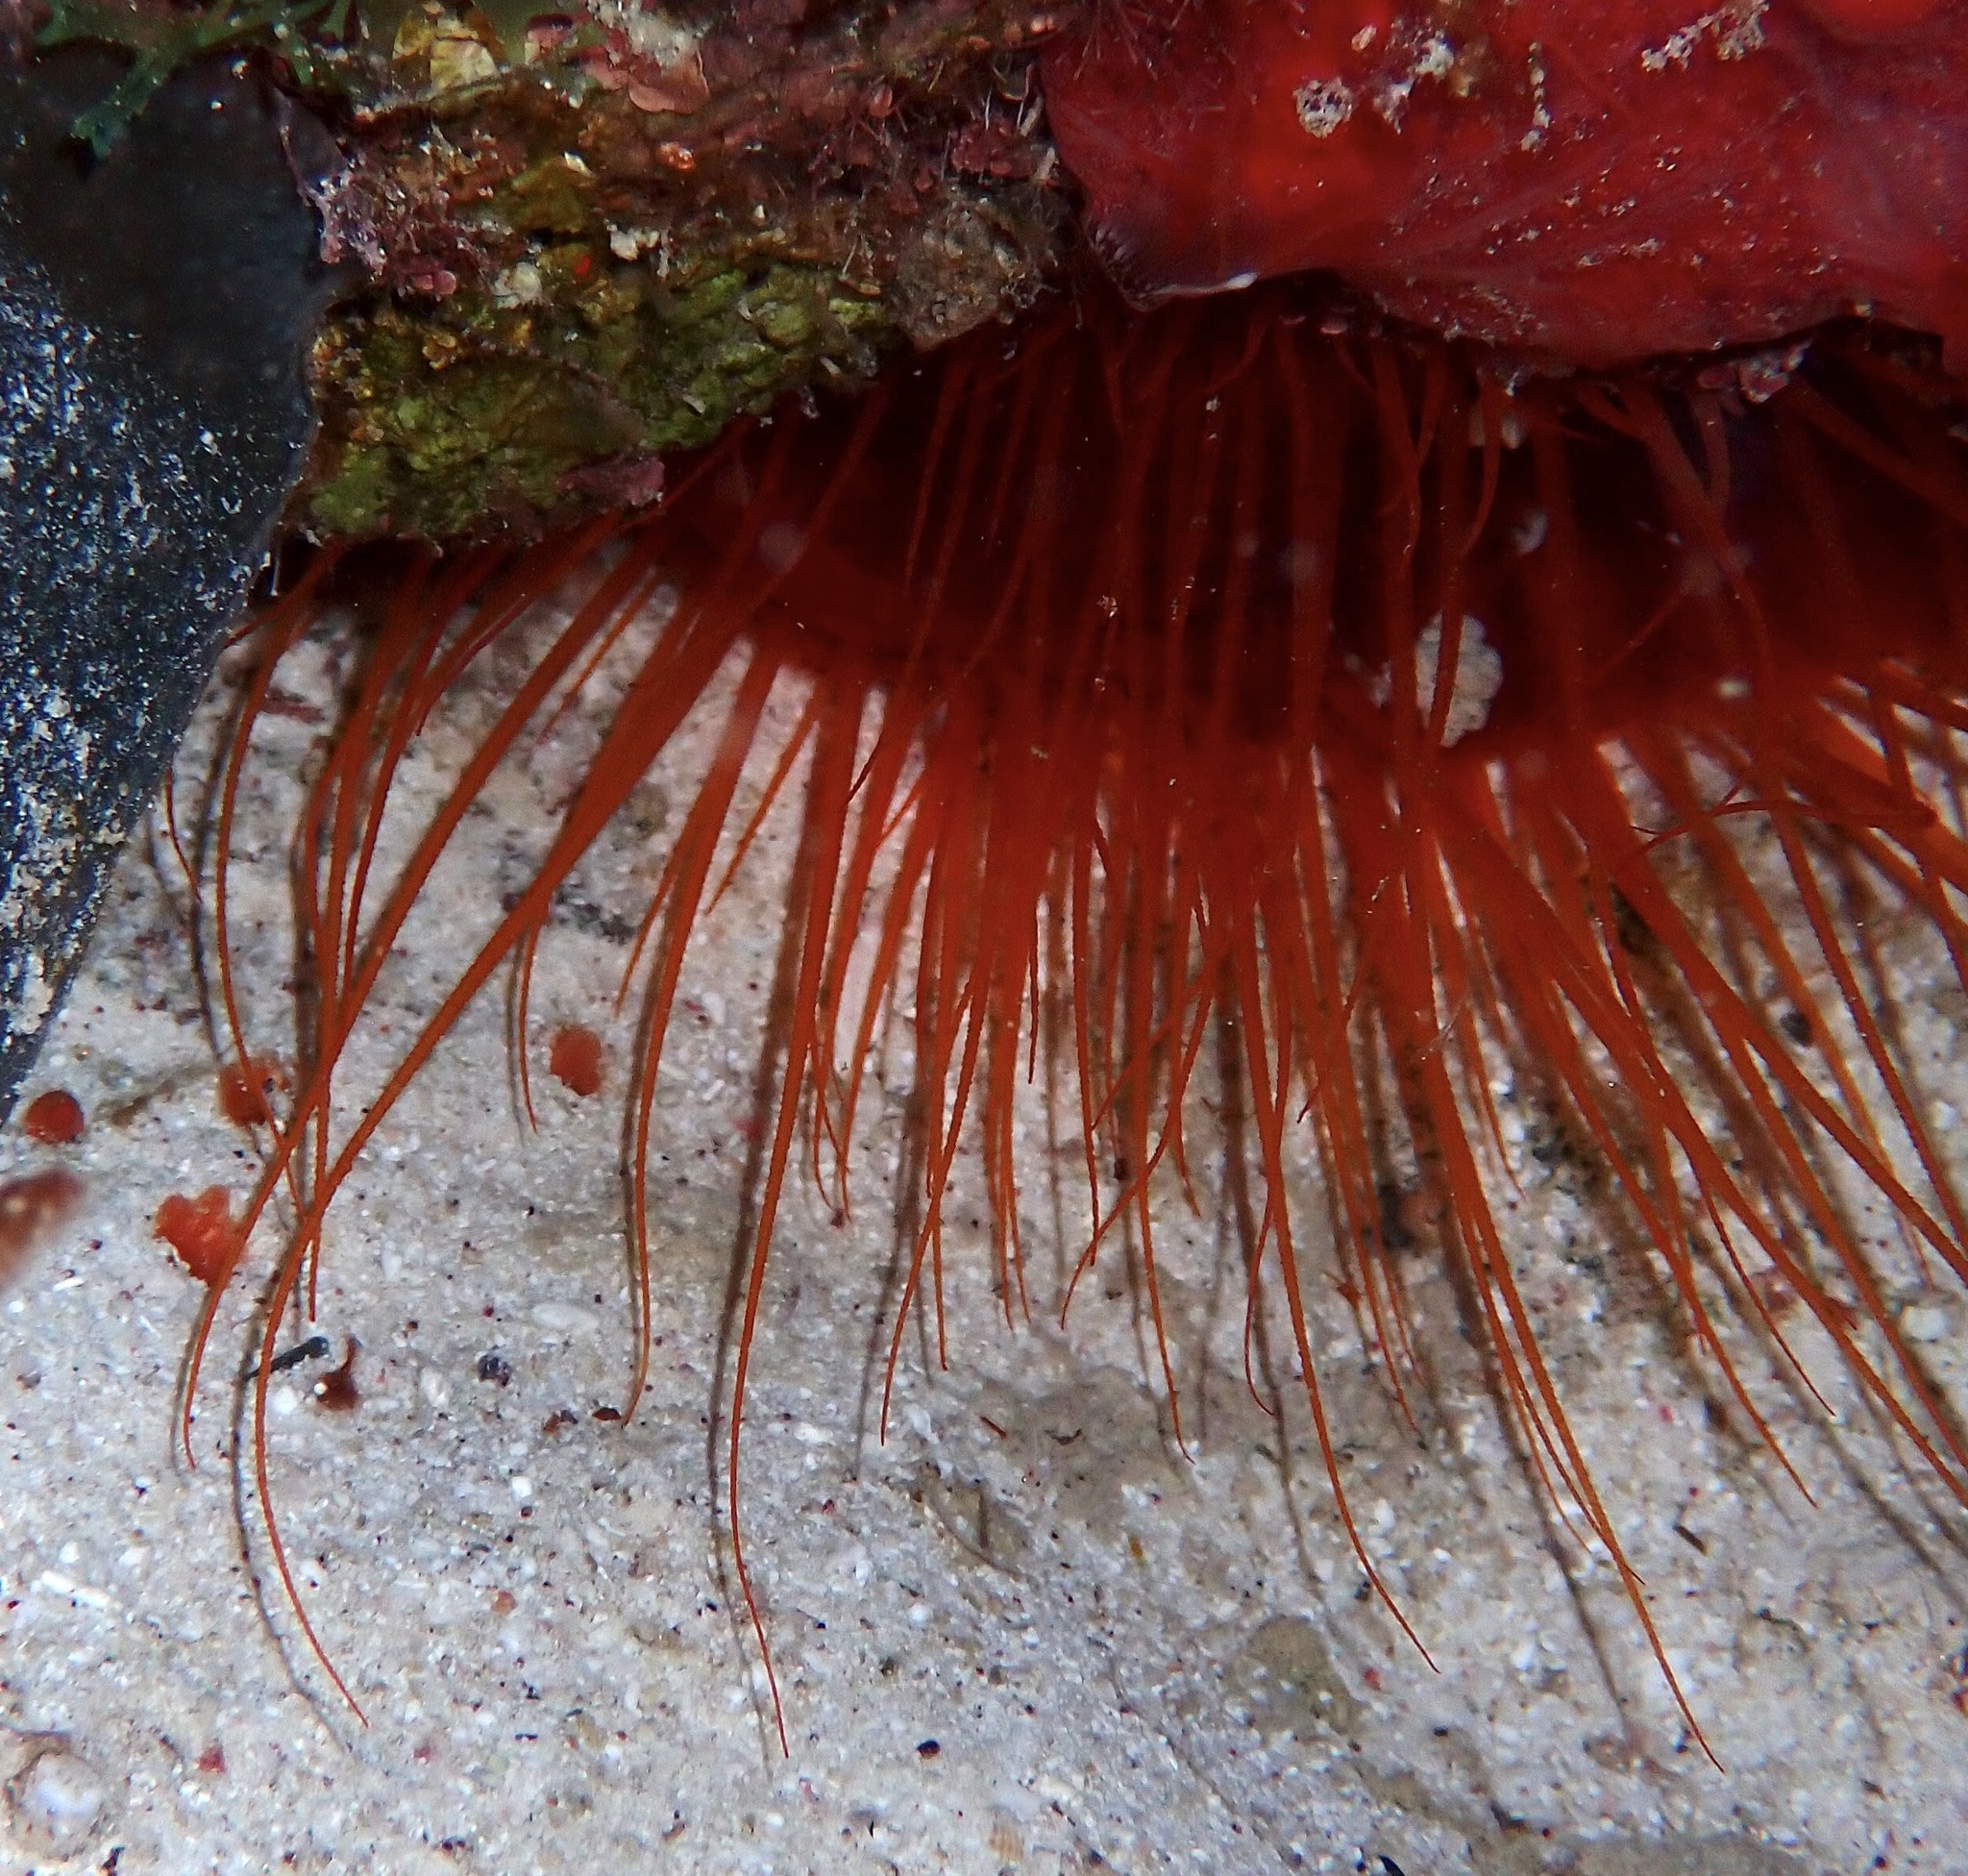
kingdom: Animalia
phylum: Mollusca
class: Bivalvia
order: Limida
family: Limidae
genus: Ctenoides
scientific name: Ctenoides scaber
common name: Rough fileclam
